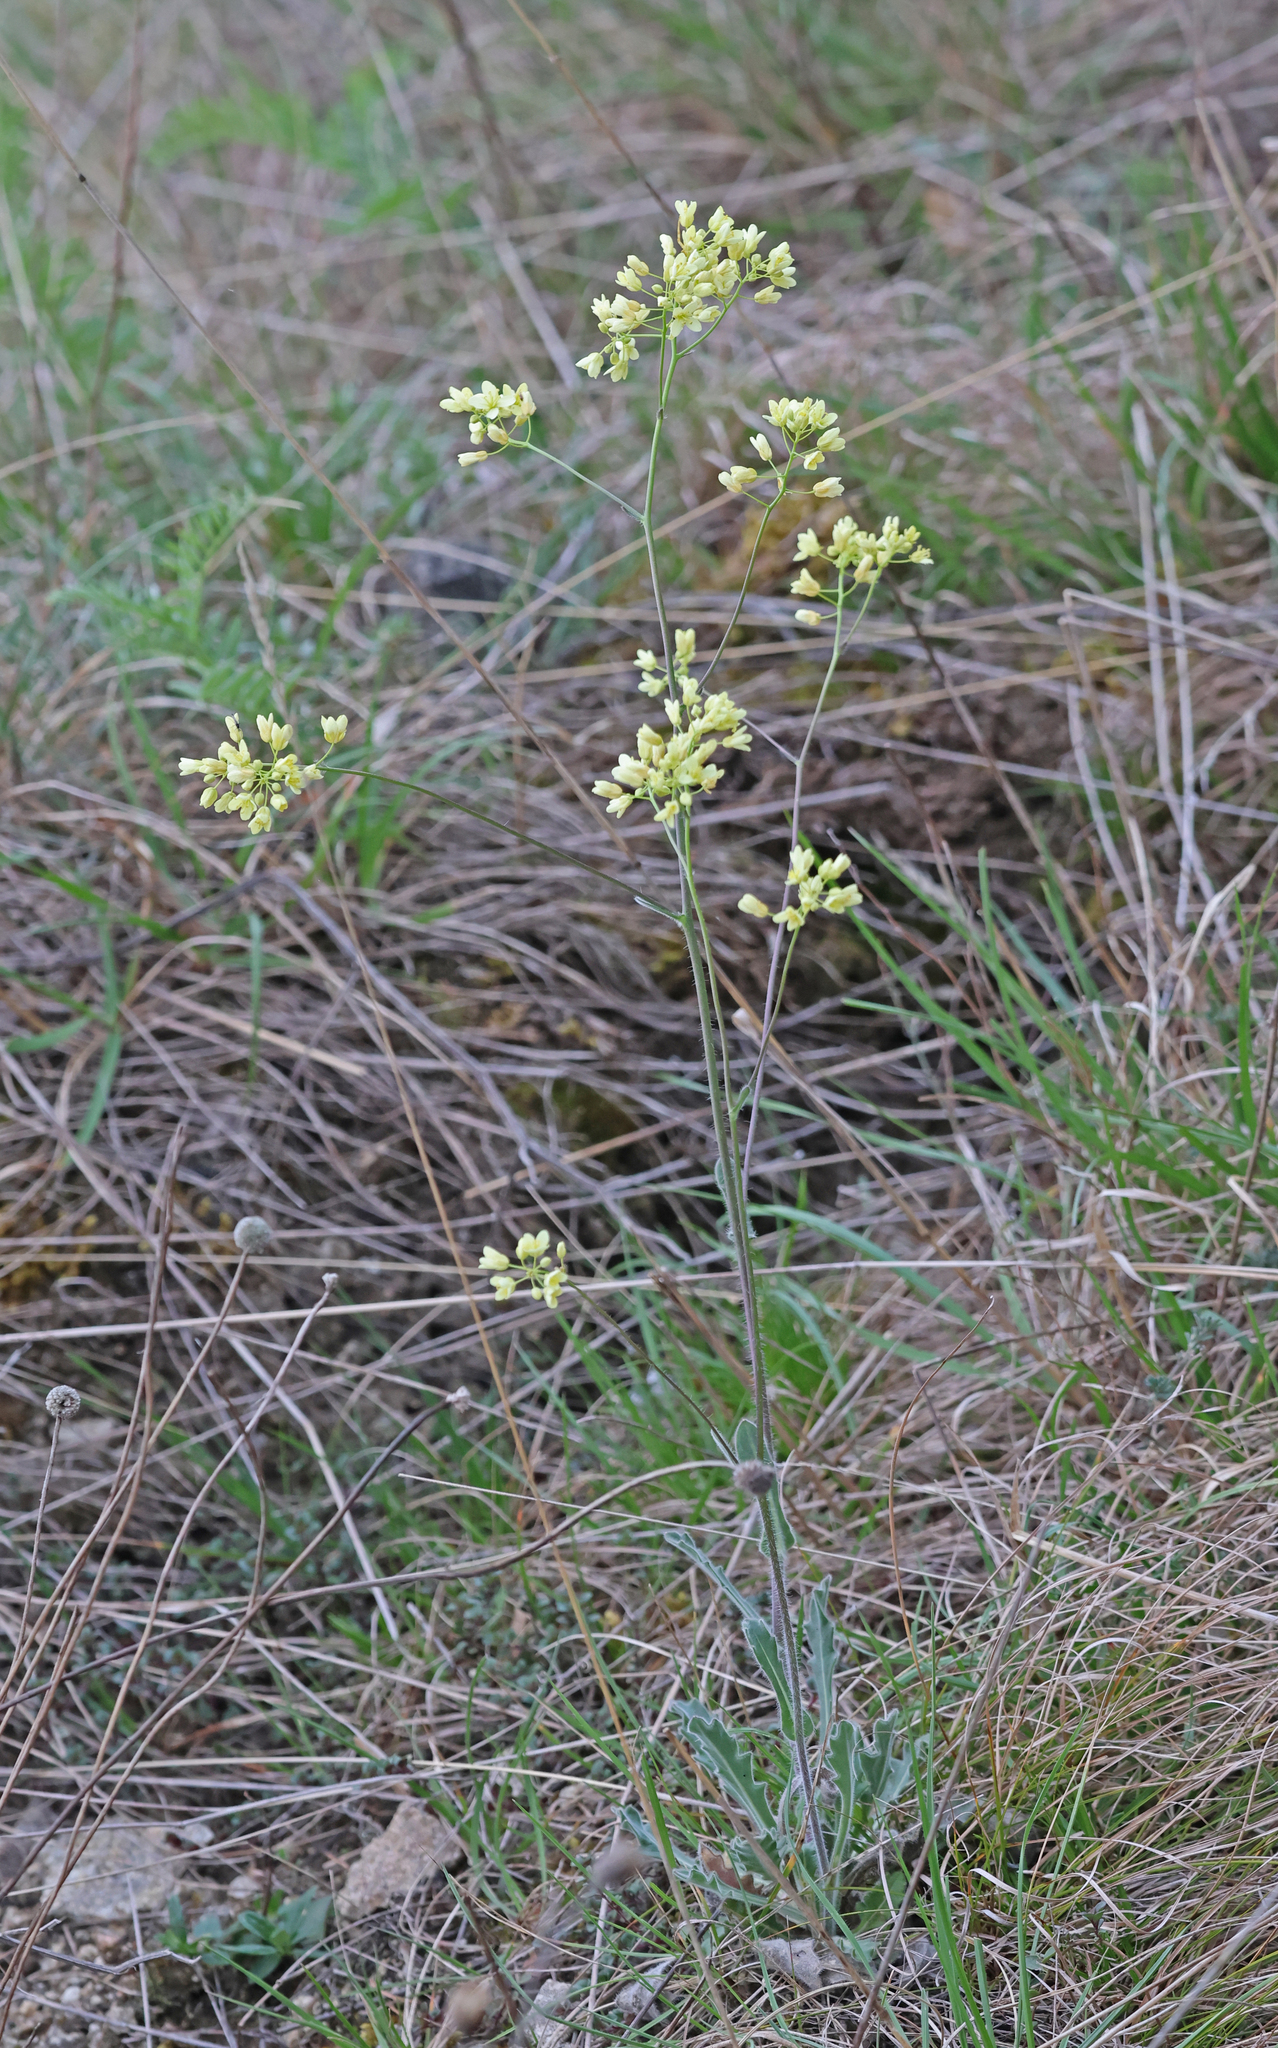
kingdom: Plantae
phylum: Tracheophyta
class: Magnoliopsida
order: Brassicales
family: Brassicaceae
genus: Biscutella
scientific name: Biscutella laevigata
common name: Buckler mustard
